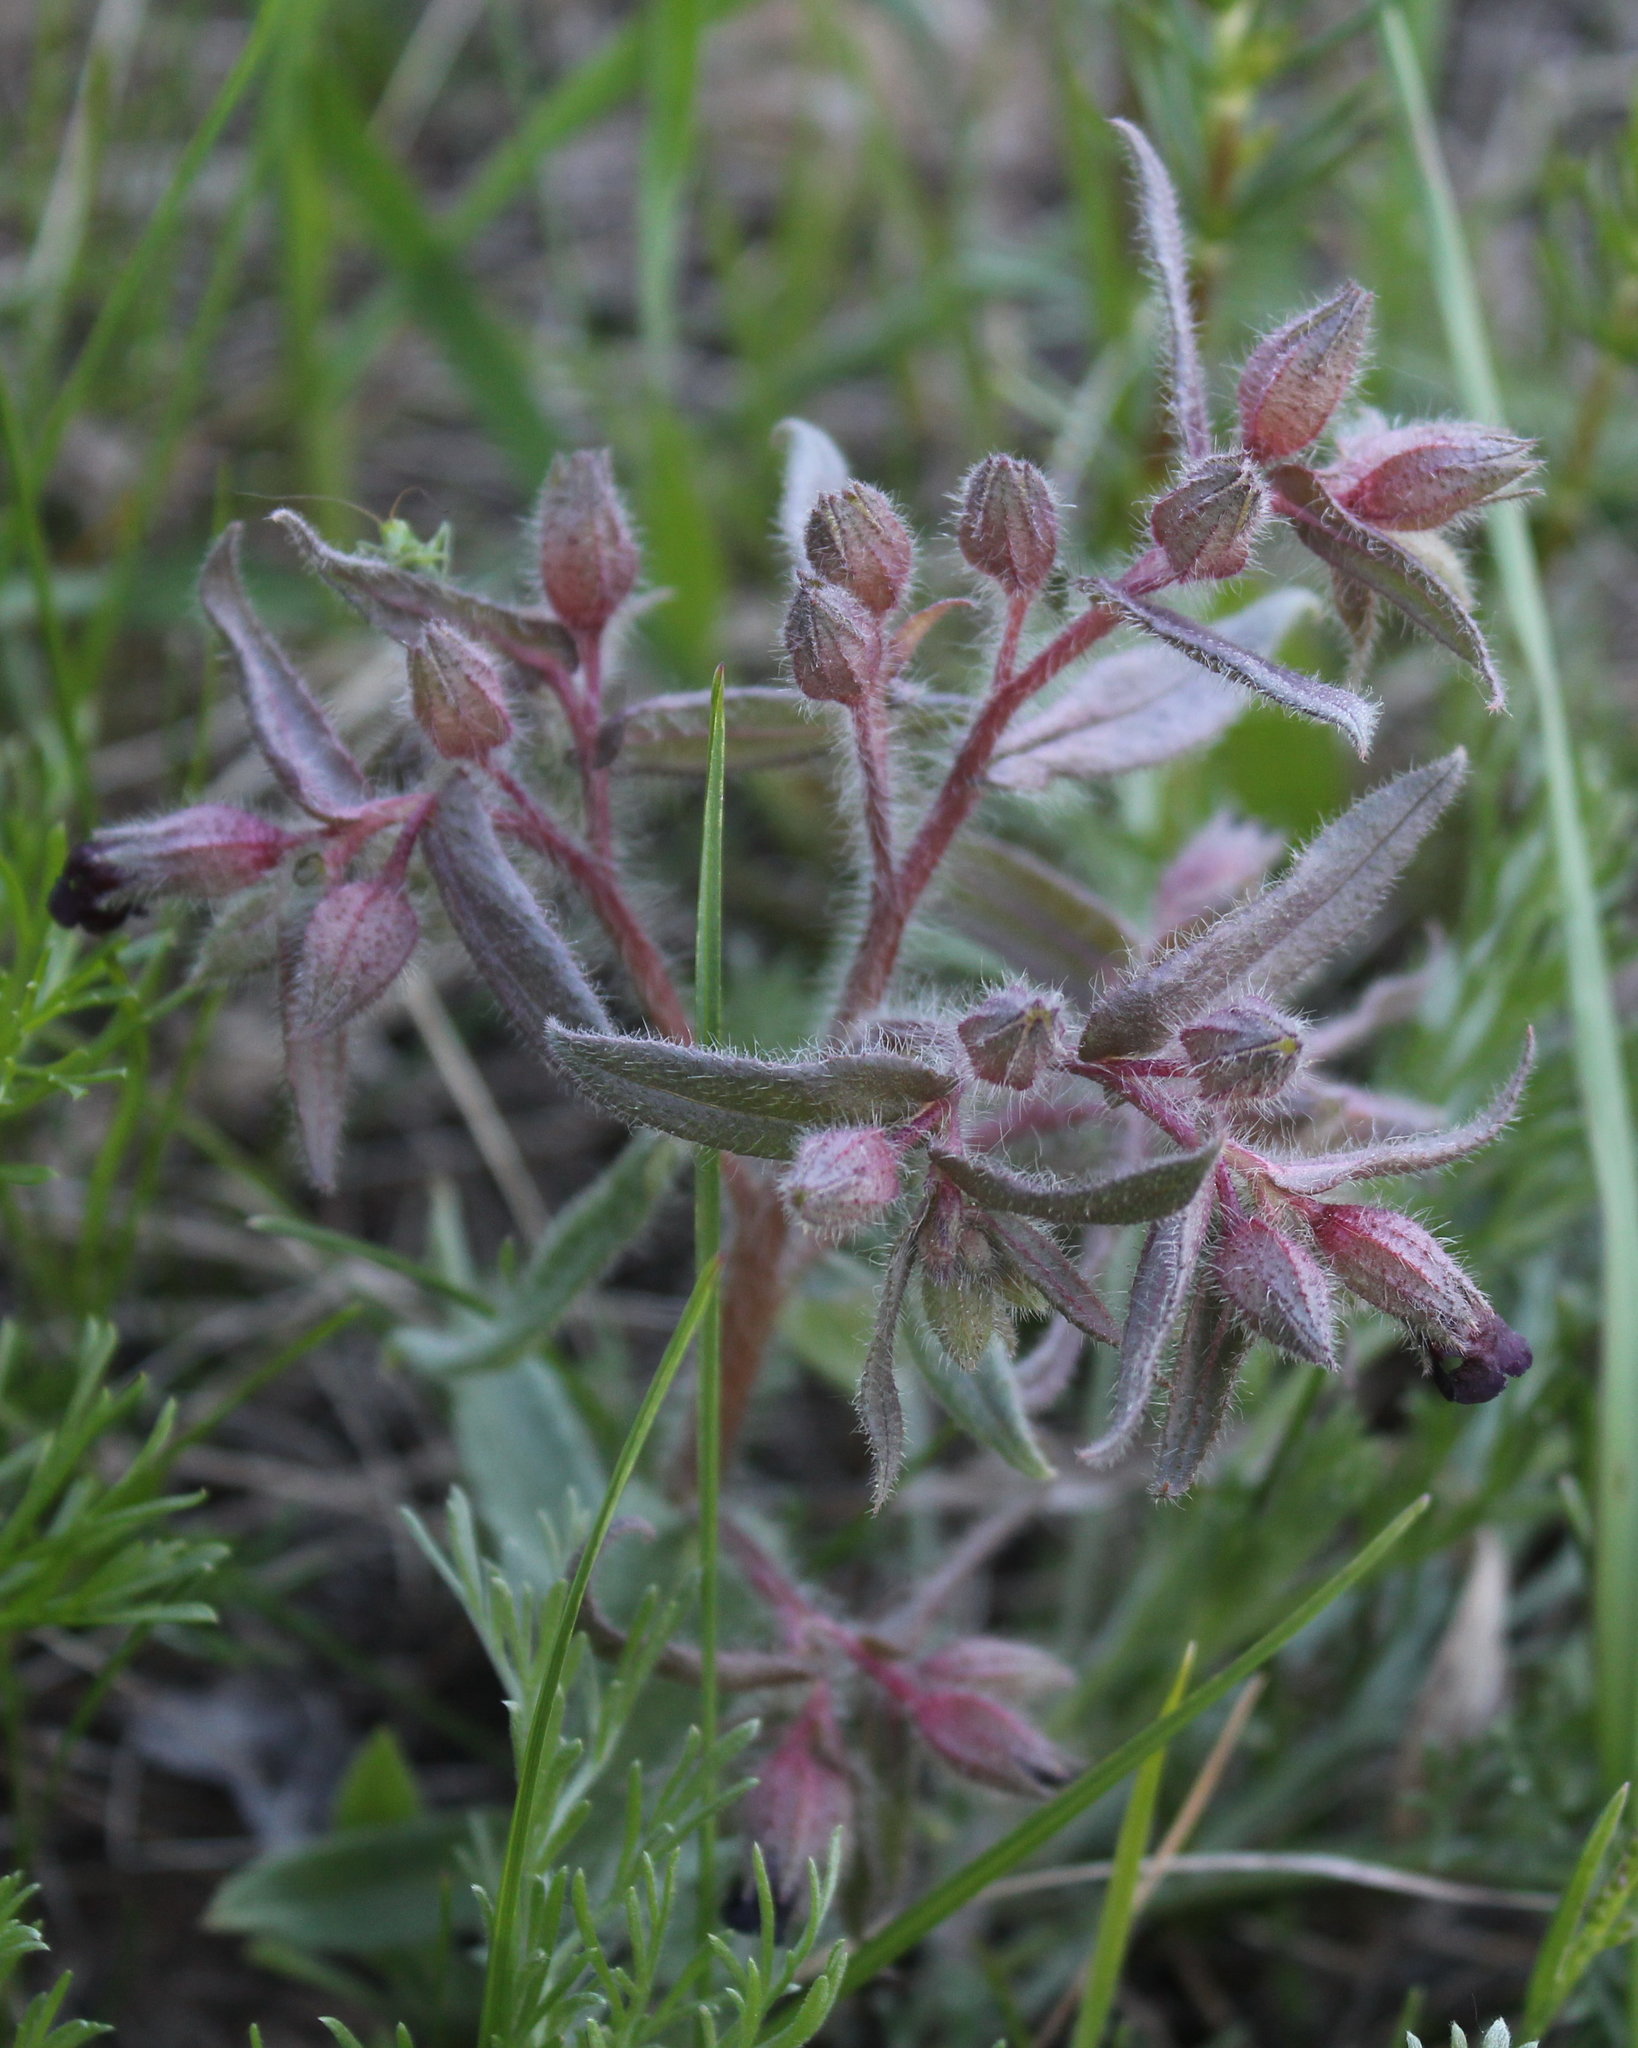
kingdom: Plantae
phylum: Tracheophyta
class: Magnoliopsida
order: Boraginales
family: Boraginaceae
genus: Nonea
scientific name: Nonea pulla
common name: Brown nonea
